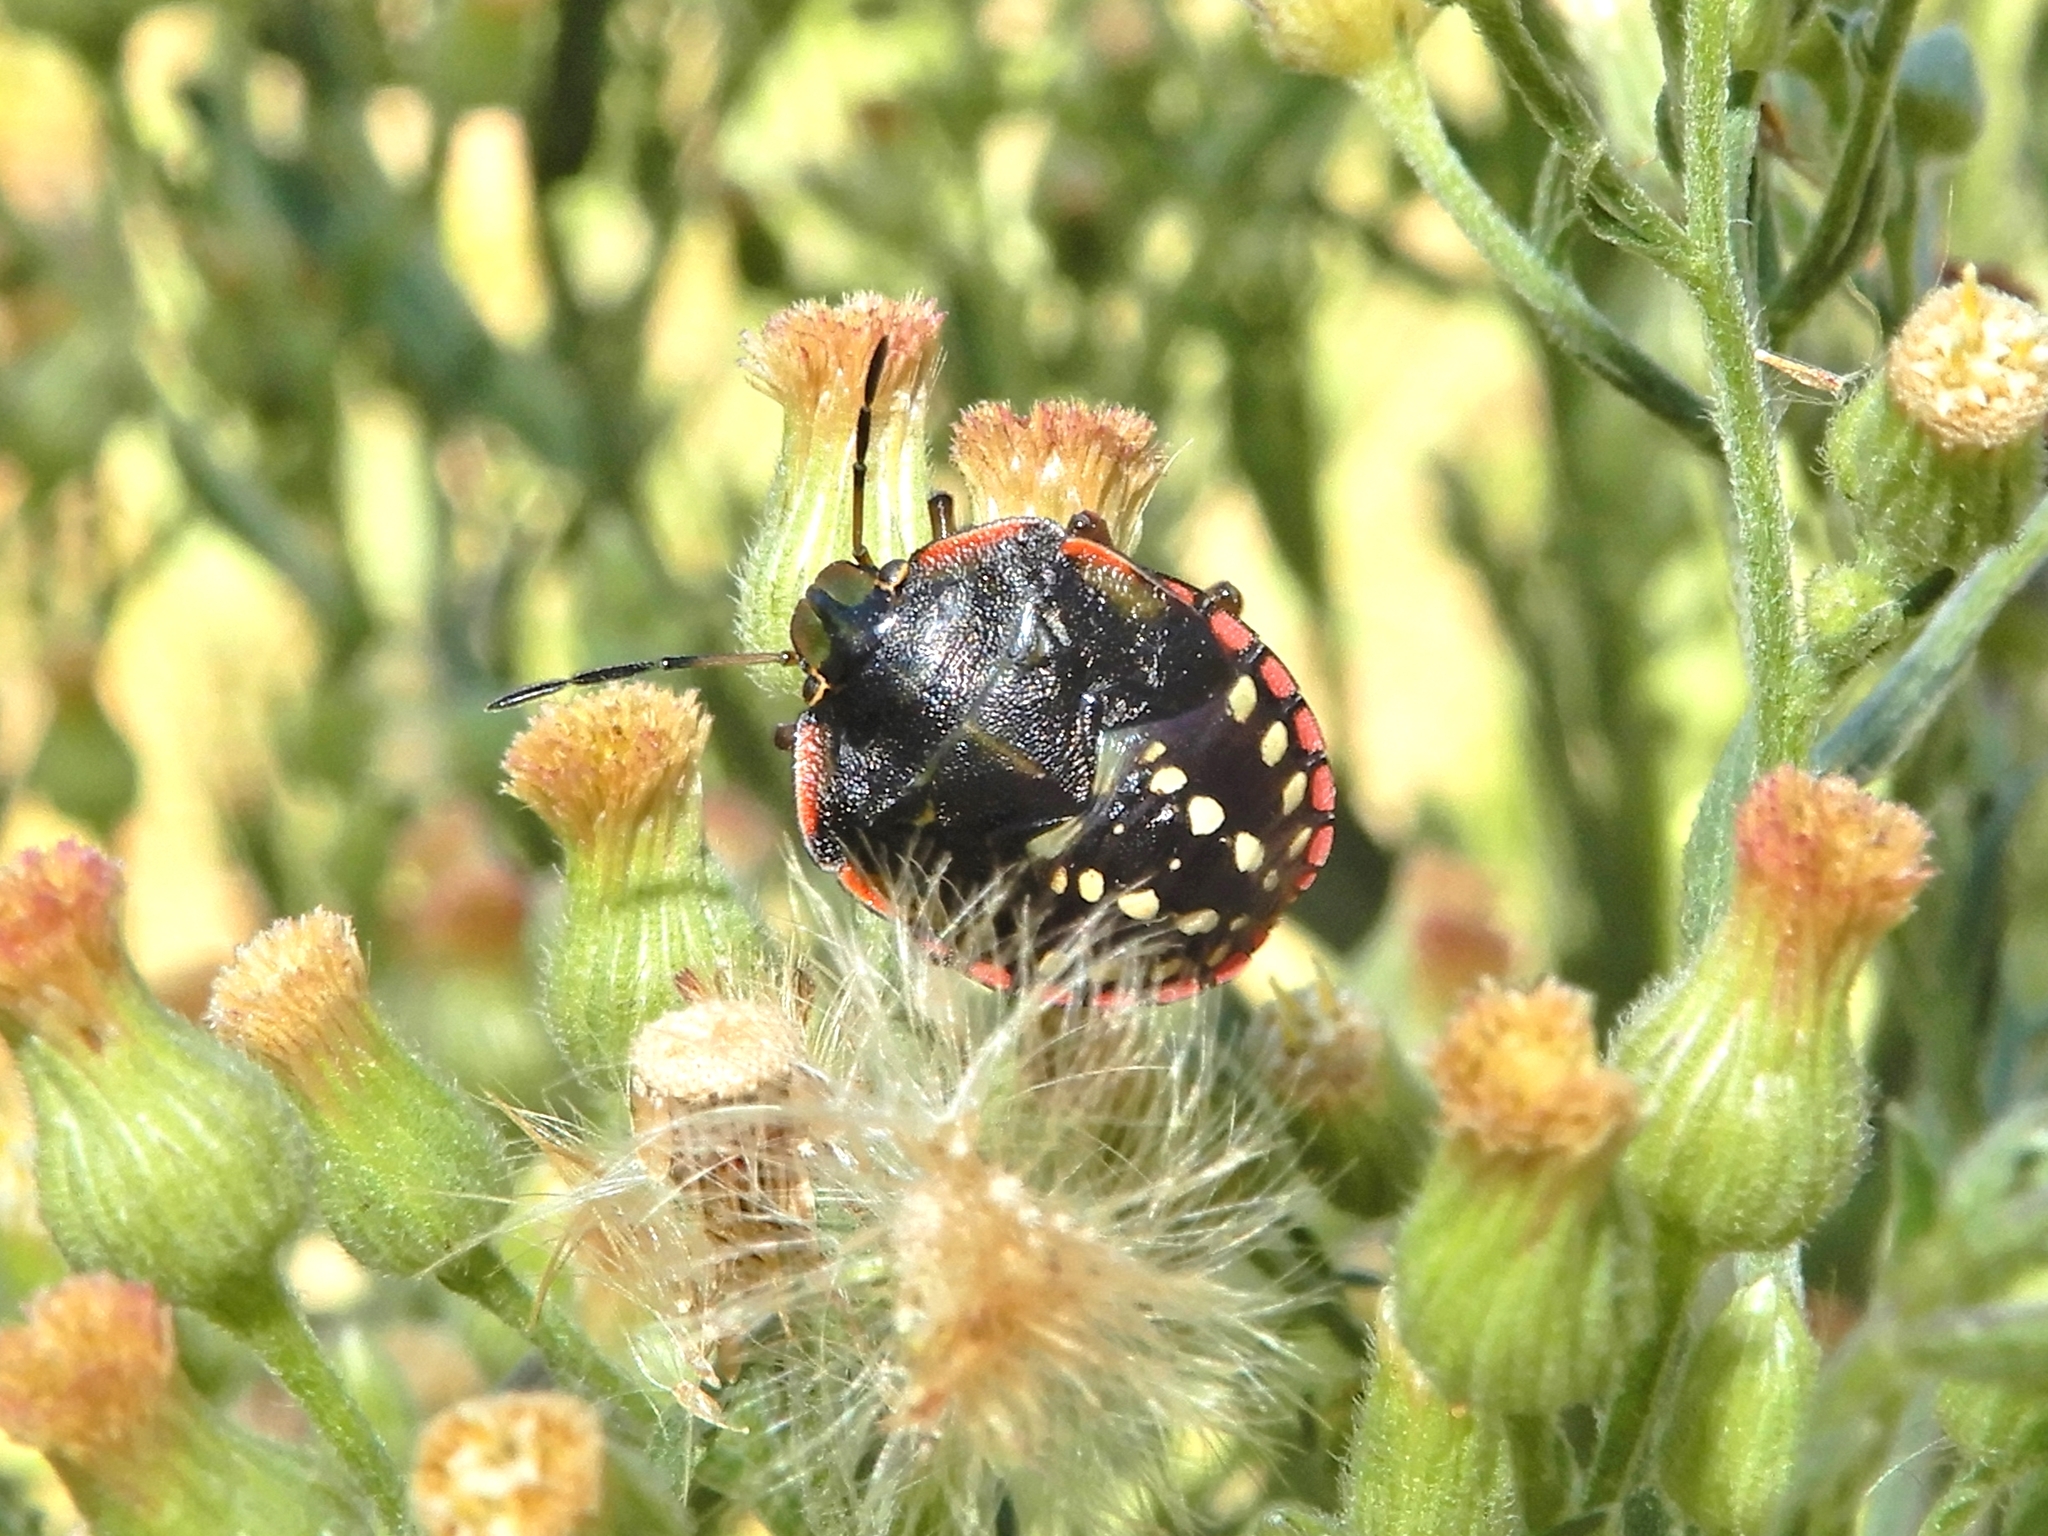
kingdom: Animalia
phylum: Arthropoda
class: Insecta
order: Hemiptera
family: Pentatomidae
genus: Nezara
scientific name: Nezara viridula
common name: Southern green stink bug
